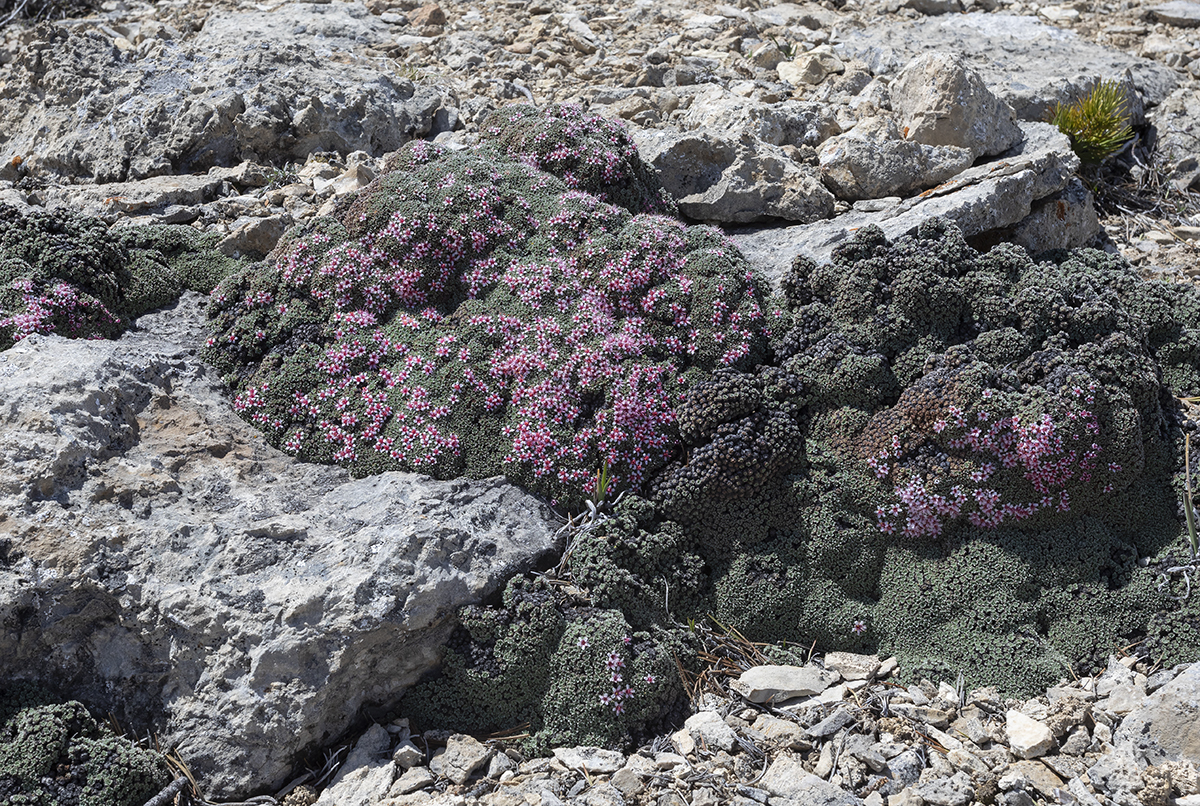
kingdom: Plantae
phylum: Tracheophyta
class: Magnoliopsida
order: Rosales
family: Rosaceae
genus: Kelseya
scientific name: Kelseya uniflora
